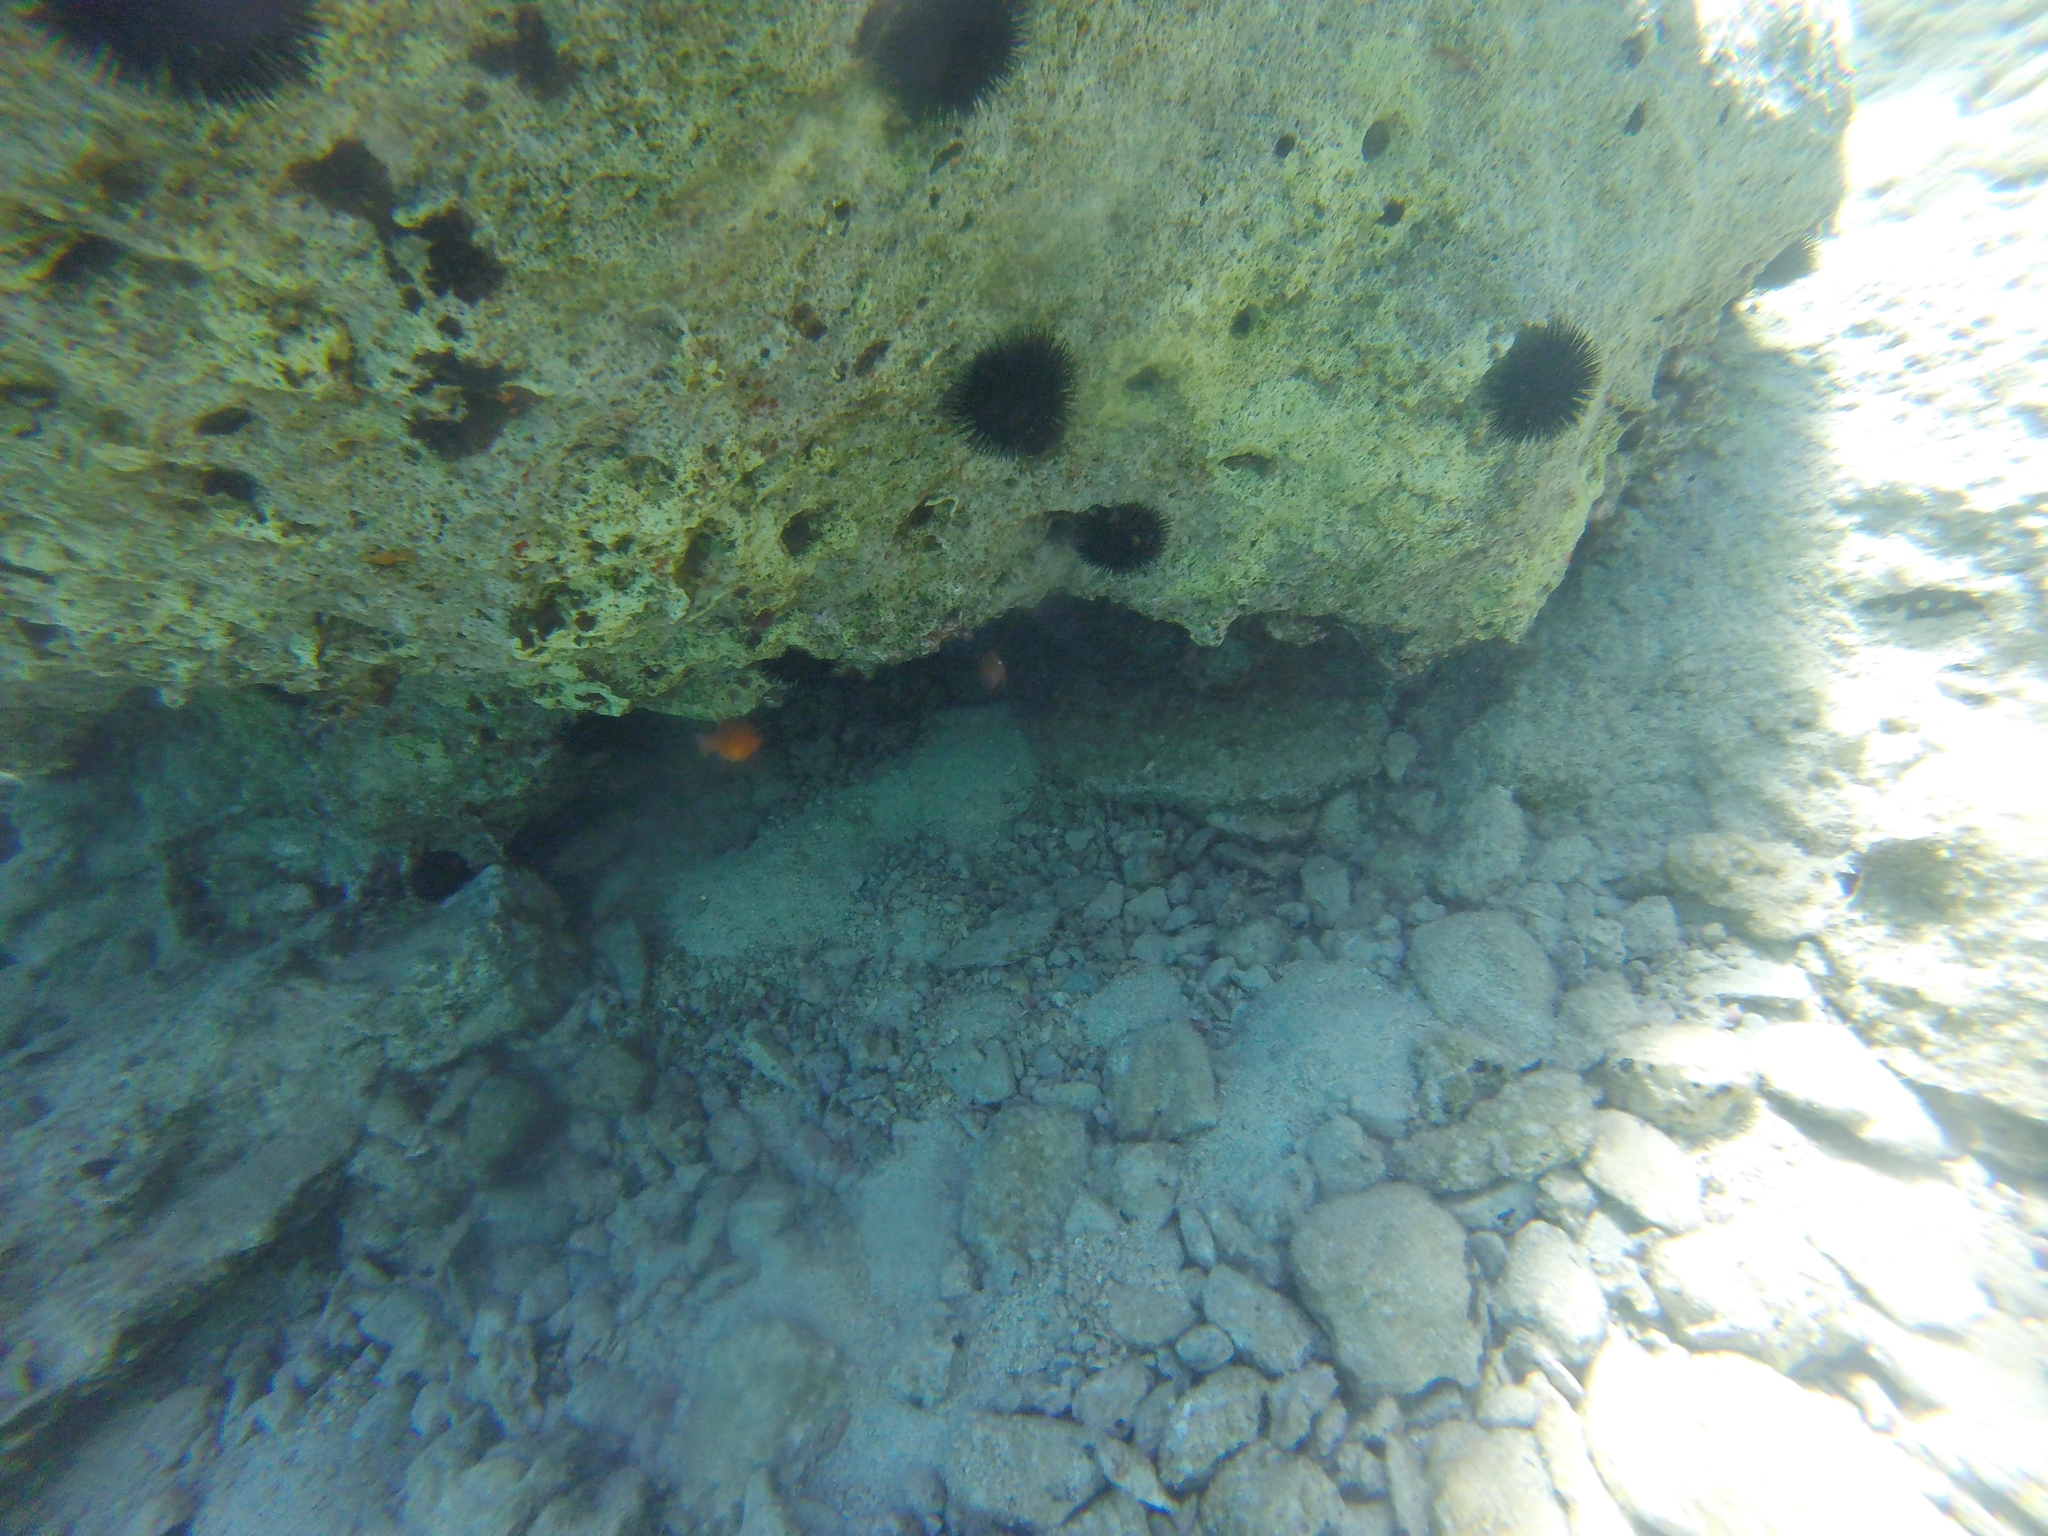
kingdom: Animalia
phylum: Chordata
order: Perciformes
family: Apogonidae
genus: Apogon
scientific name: Apogon imberbis
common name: Cardinal fish
